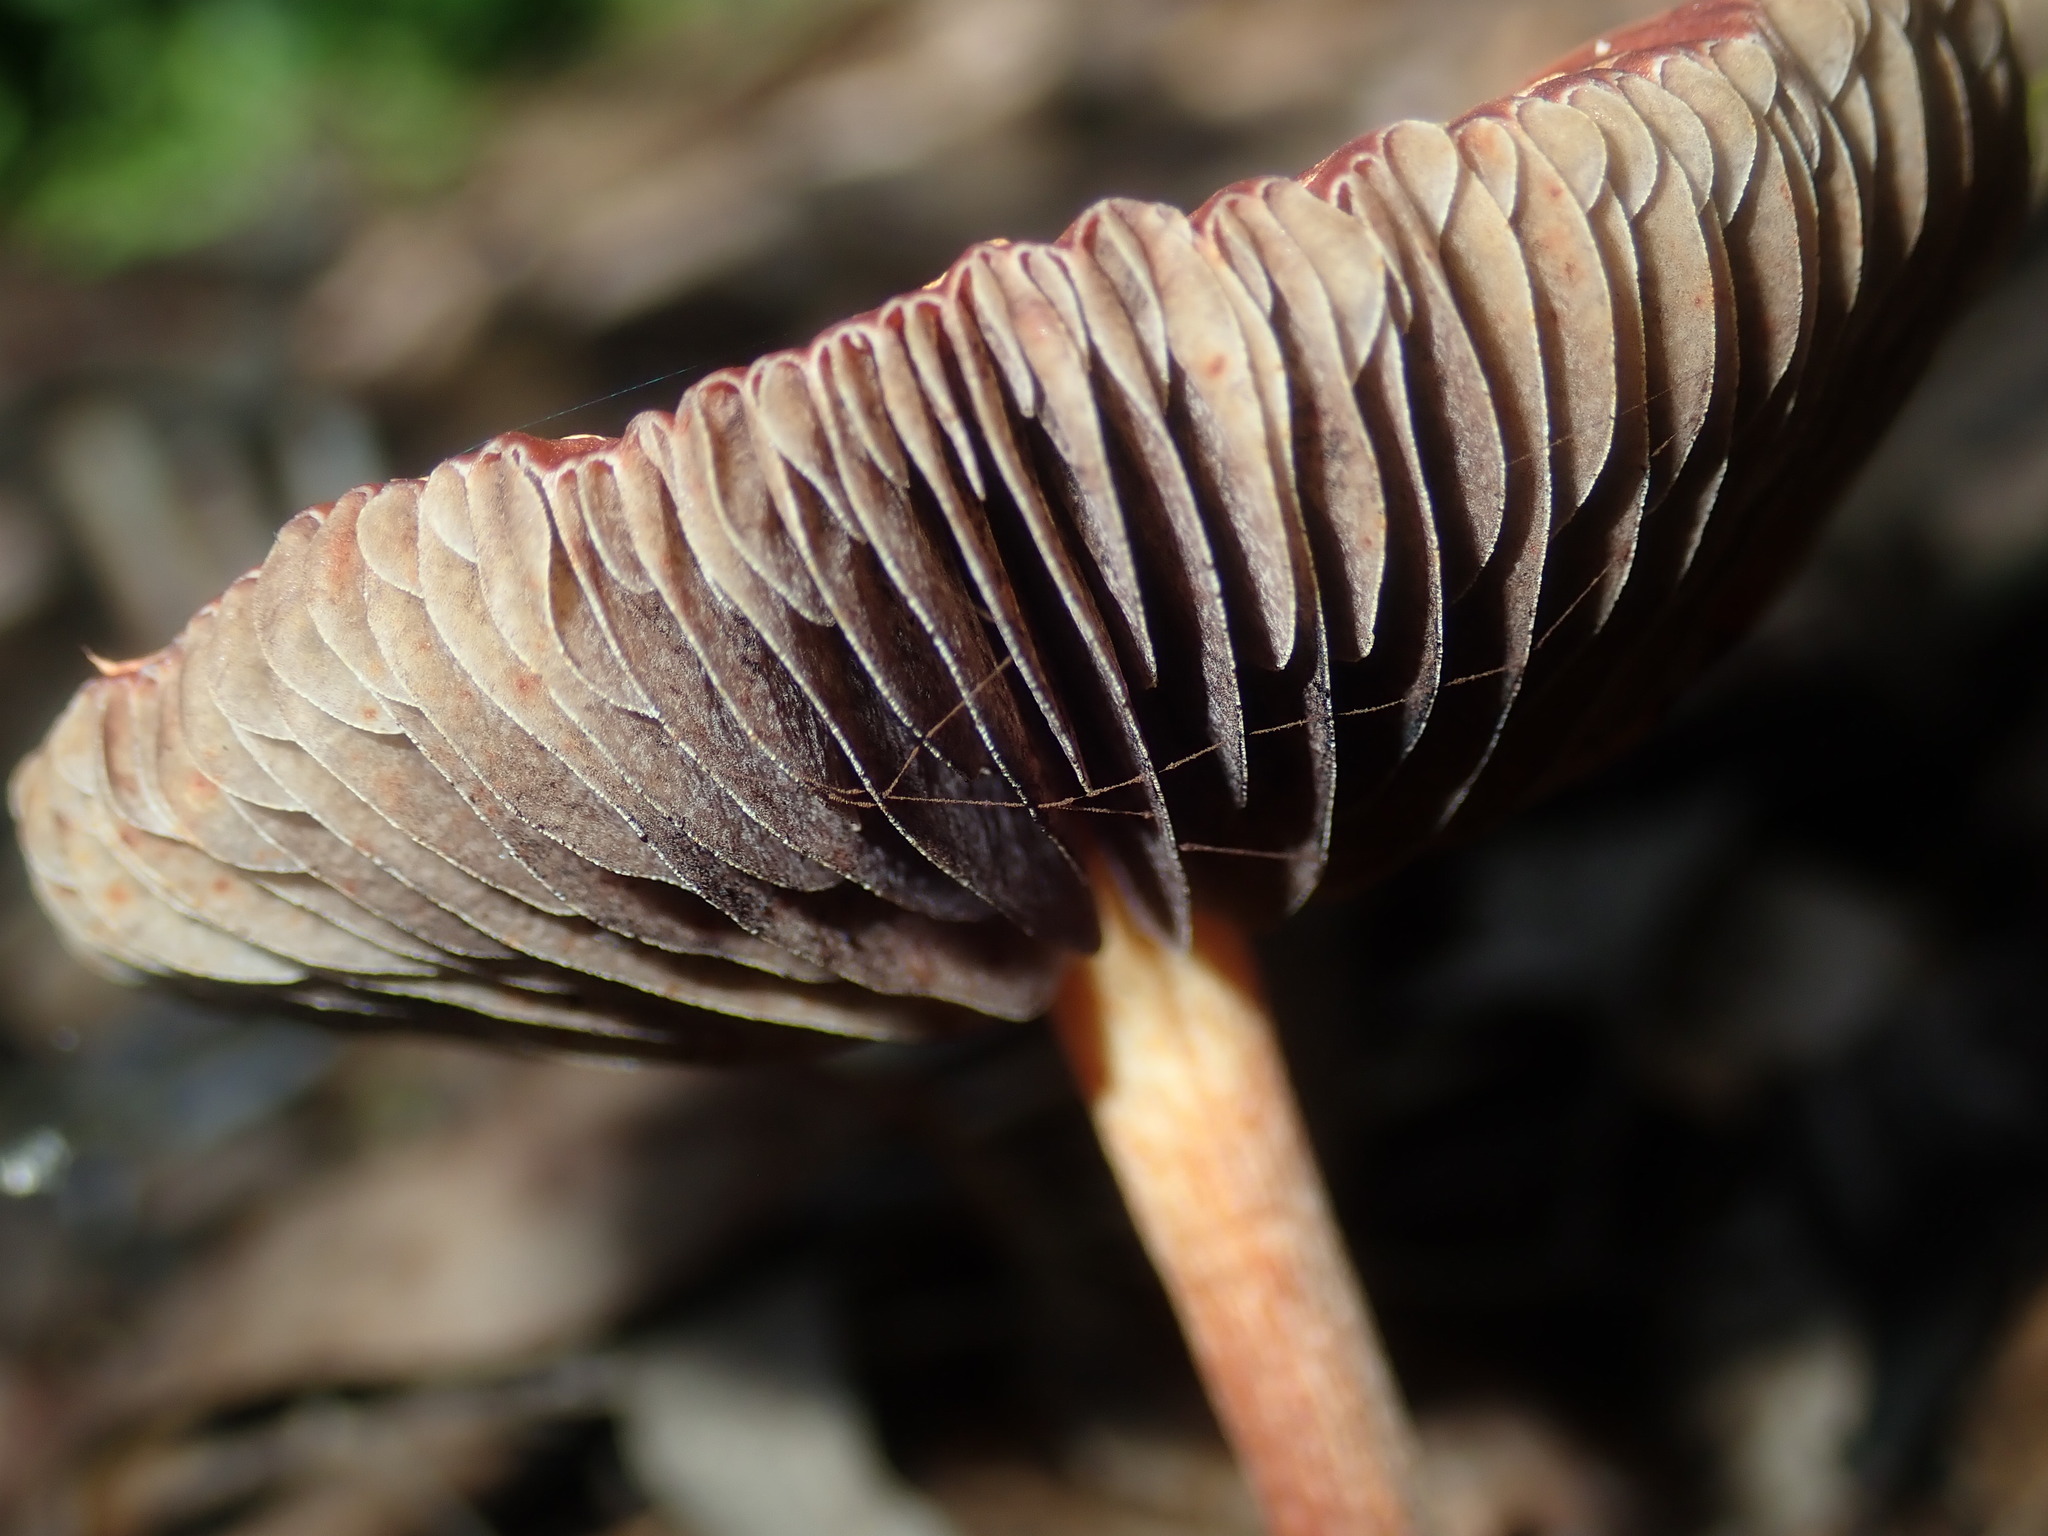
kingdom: Fungi
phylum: Basidiomycota
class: Agaricomycetes
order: Agaricales
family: Strophariaceae
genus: Leratiomyces
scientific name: Leratiomyces ceres
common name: Redlead roundhead
